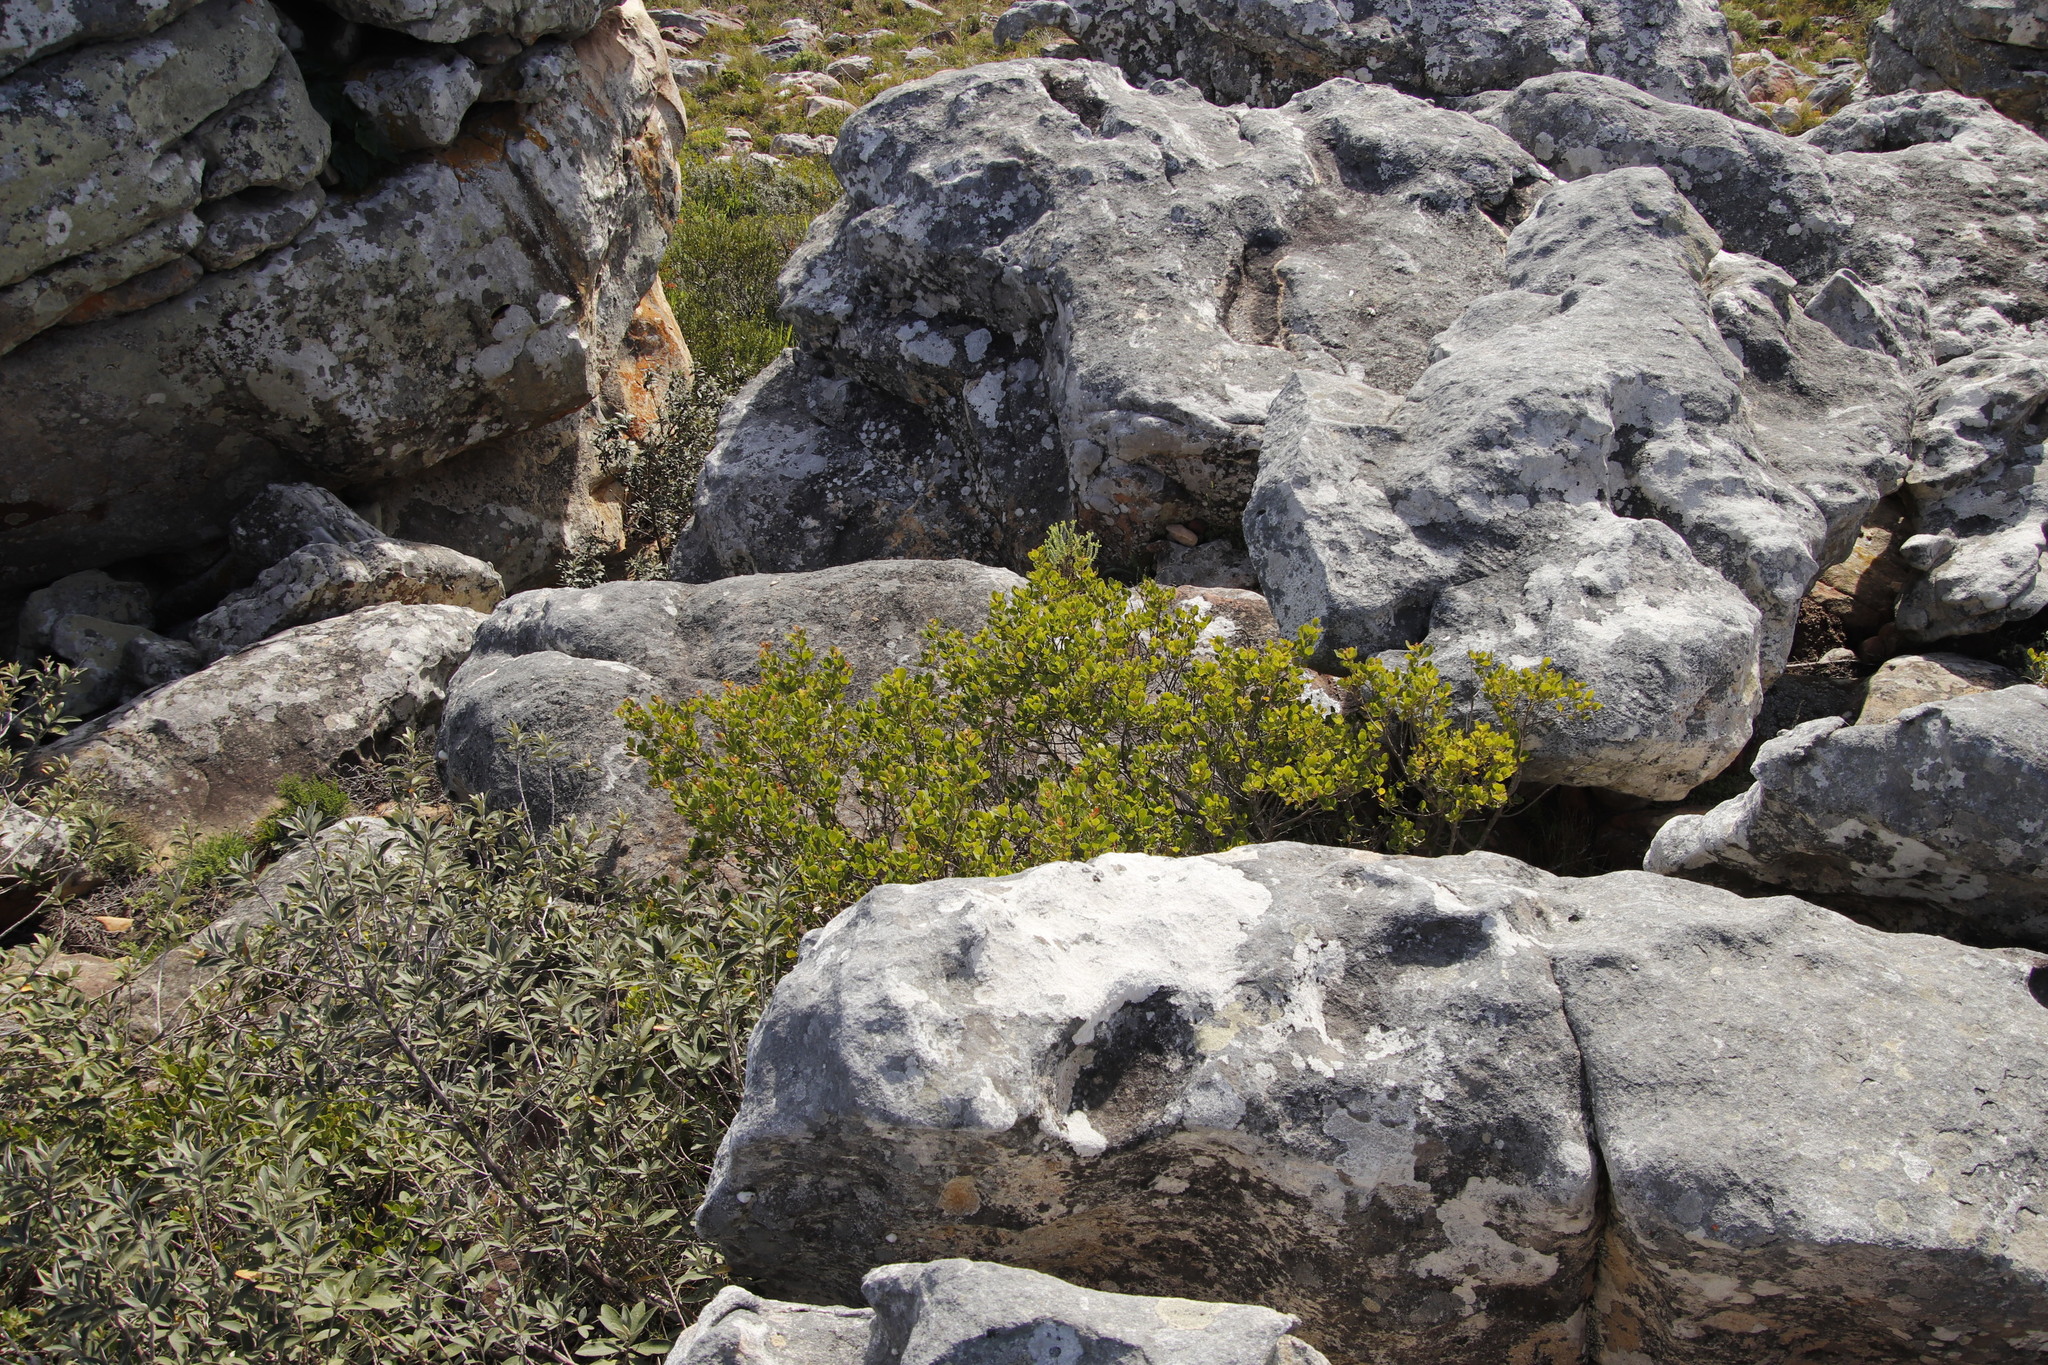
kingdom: Plantae
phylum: Tracheophyta
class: Magnoliopsida
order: Sapindales
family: Anacardiaceae
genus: Searsia
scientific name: Searsia lucida
